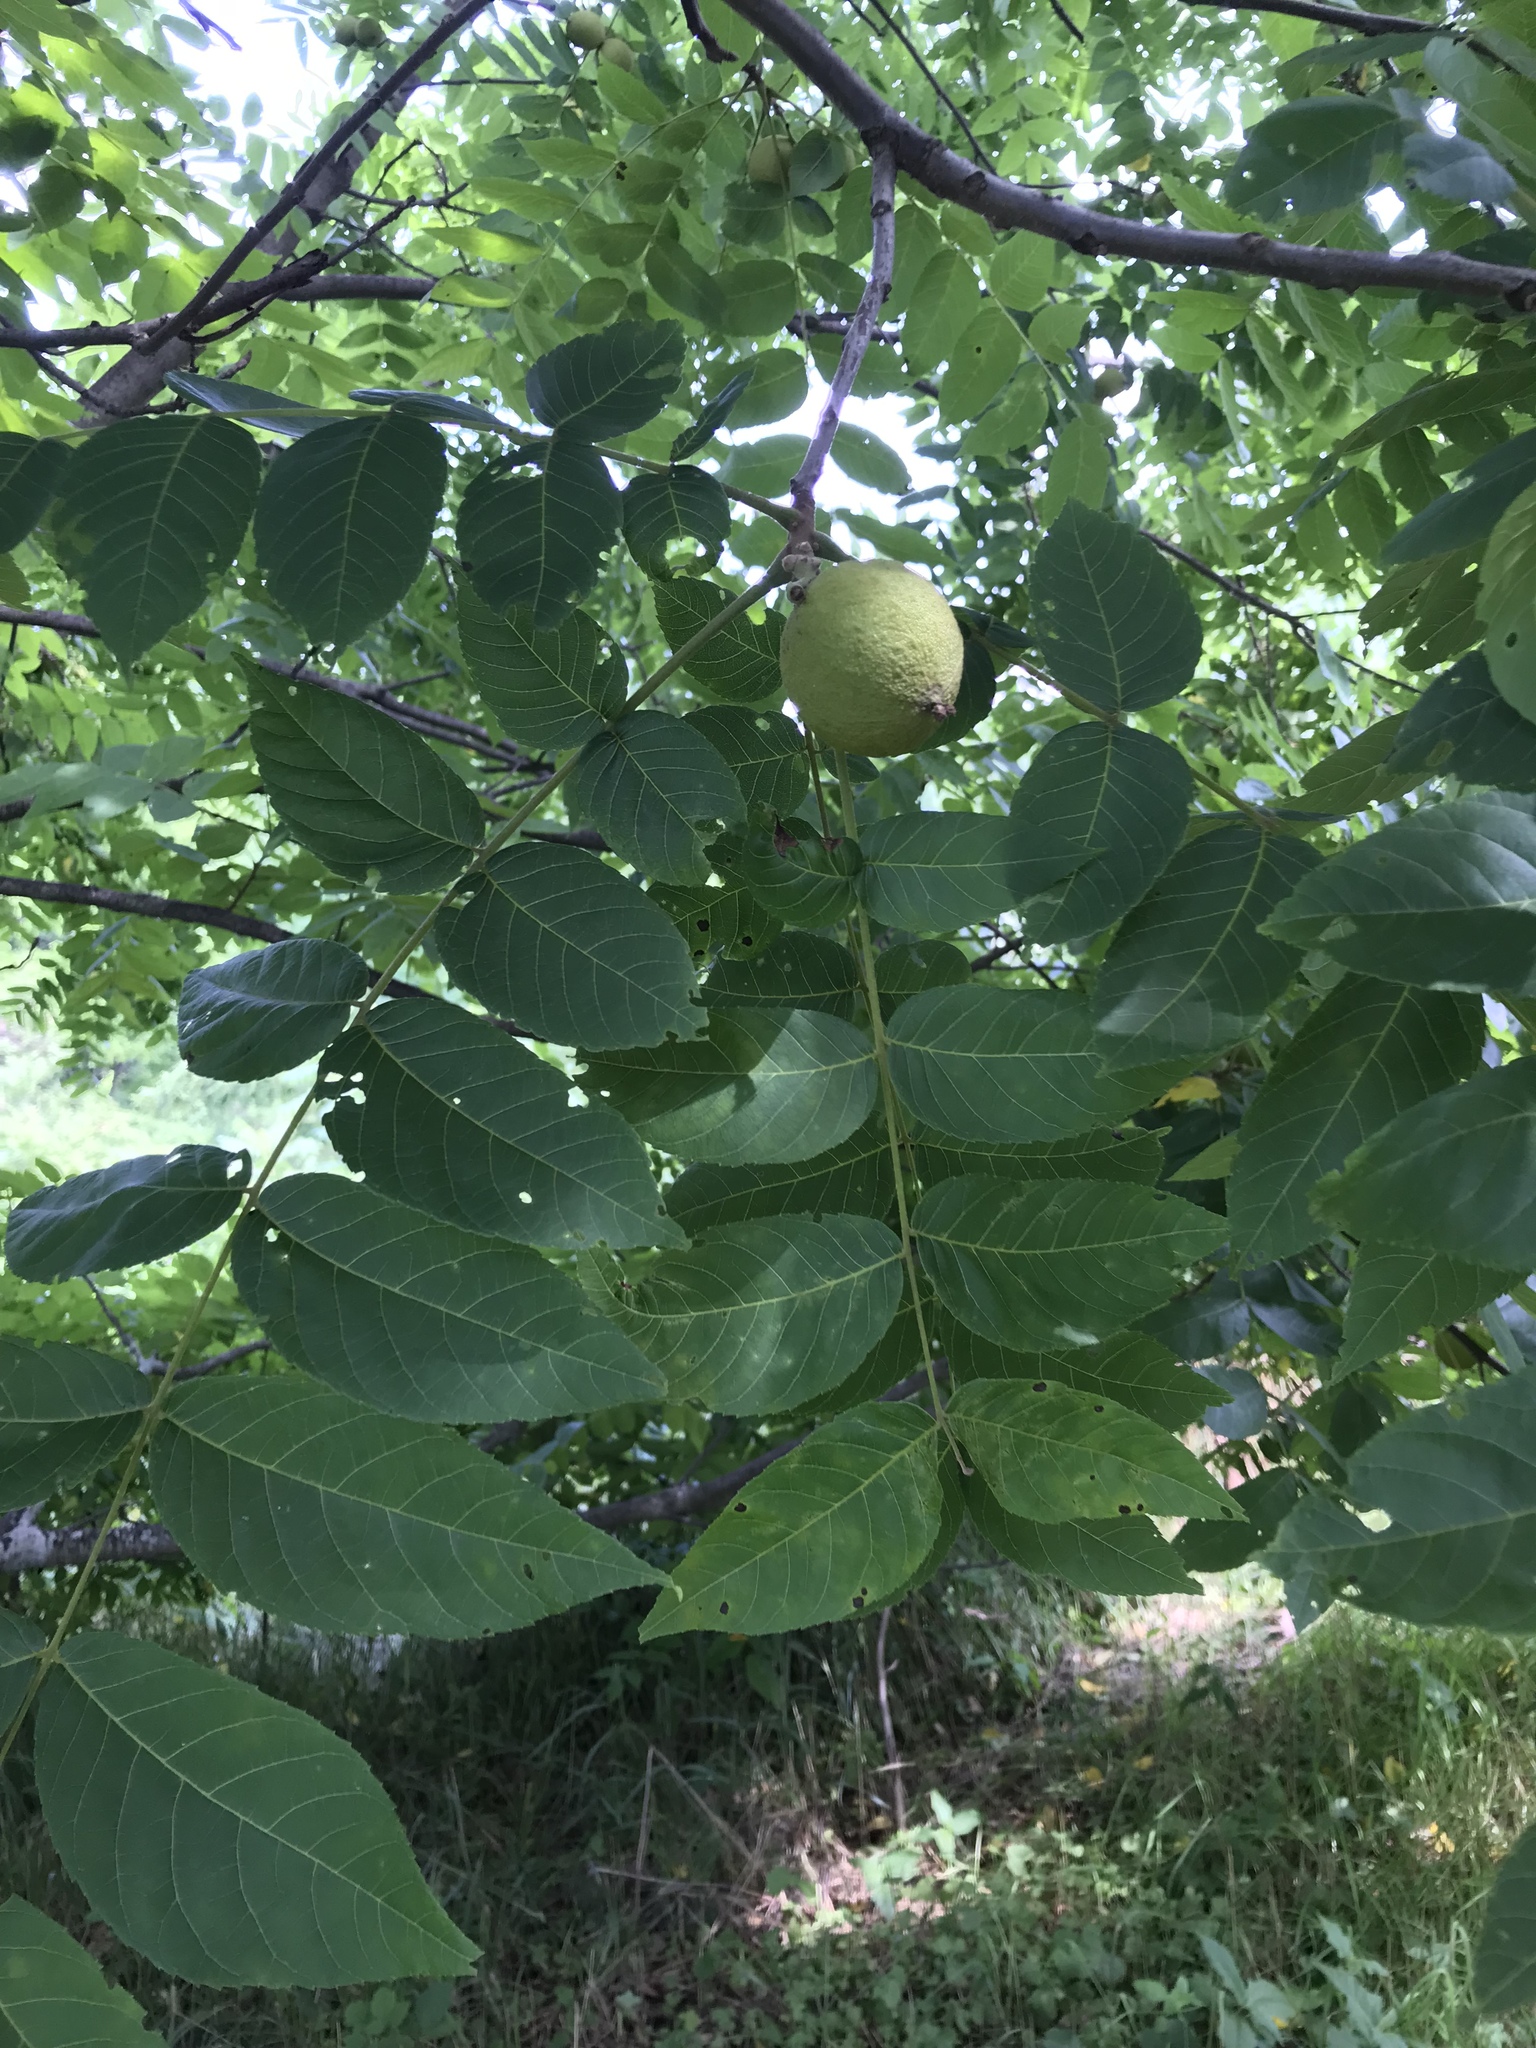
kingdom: Plantae
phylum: Tracheophyta
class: Magnoliopsida
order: Fagales
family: Juglandaceae
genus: Juglans
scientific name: Juglans nigra
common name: Black walnut
